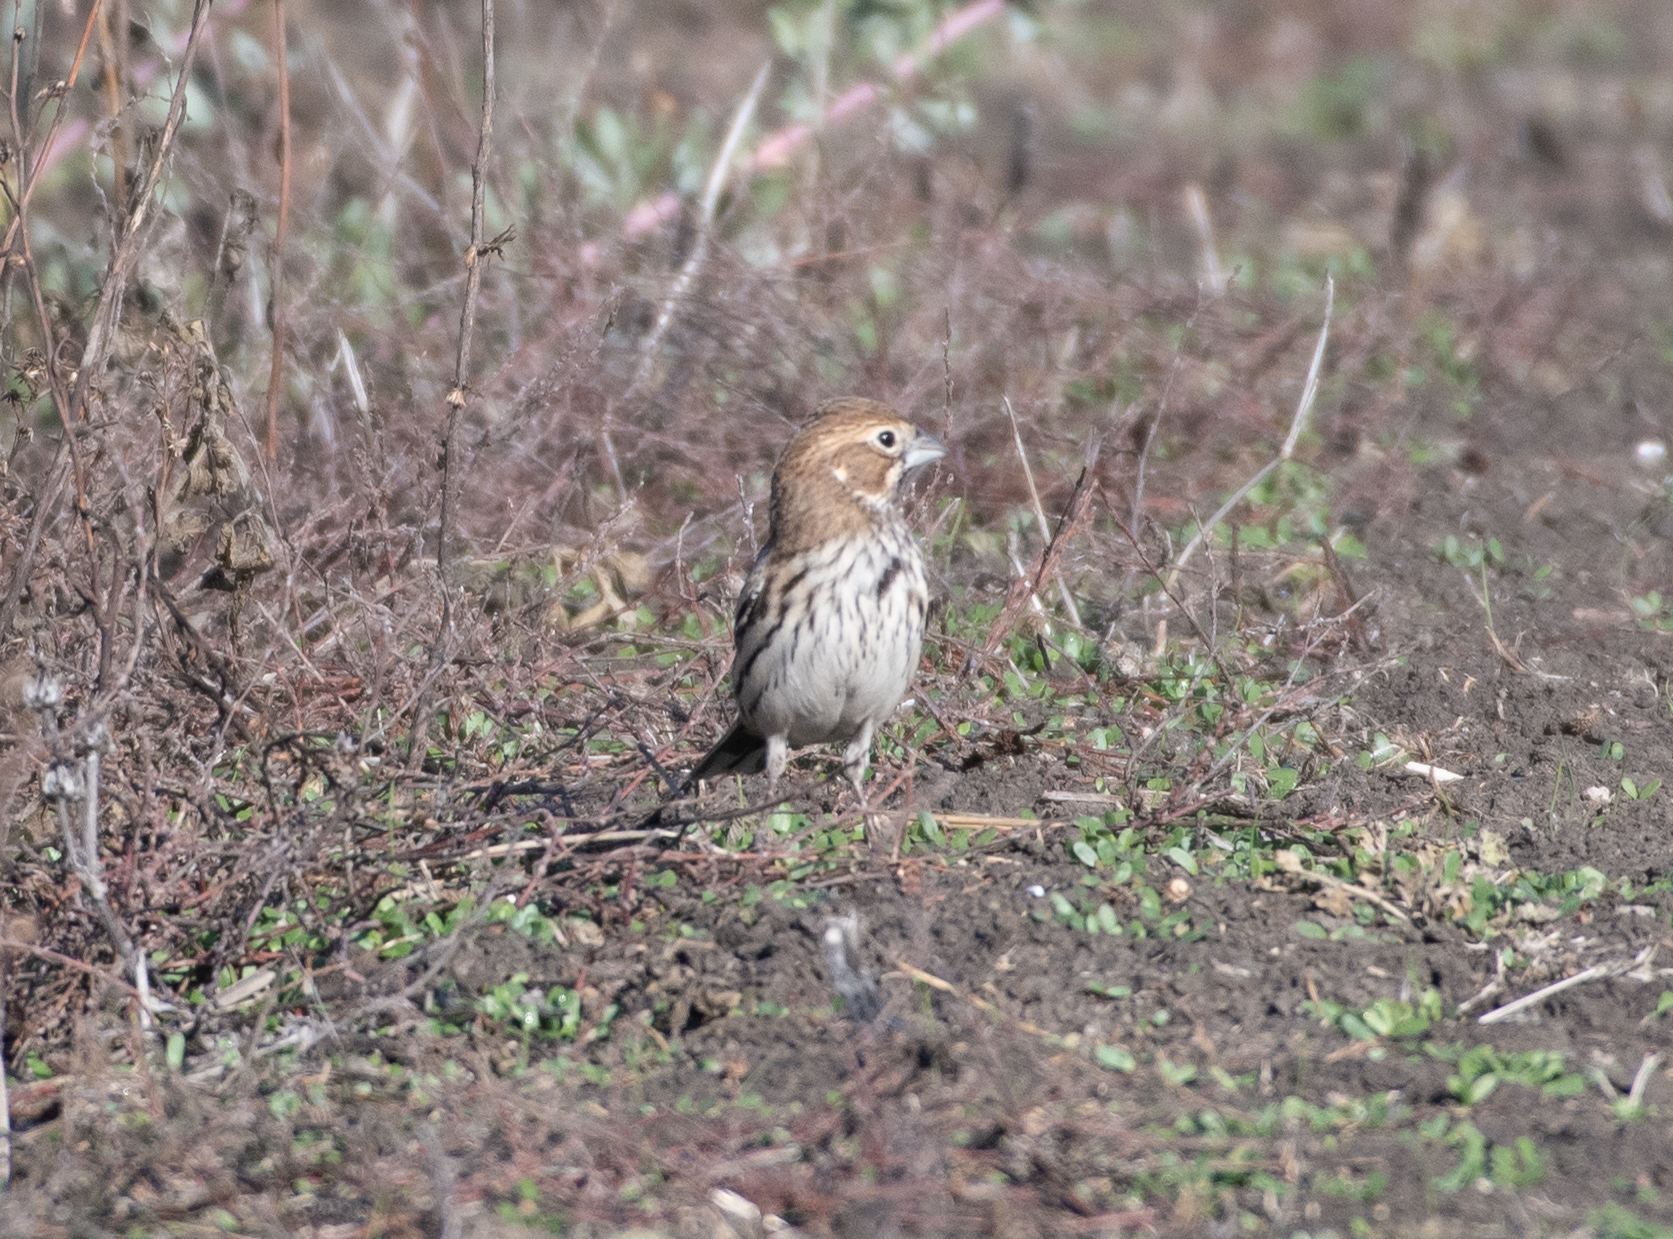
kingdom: Animalia
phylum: Chordata
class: Aves
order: Passeriformes
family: Passerellidae
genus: Calamospiza
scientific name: Calamospiza melanocorys
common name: Lark bunting
